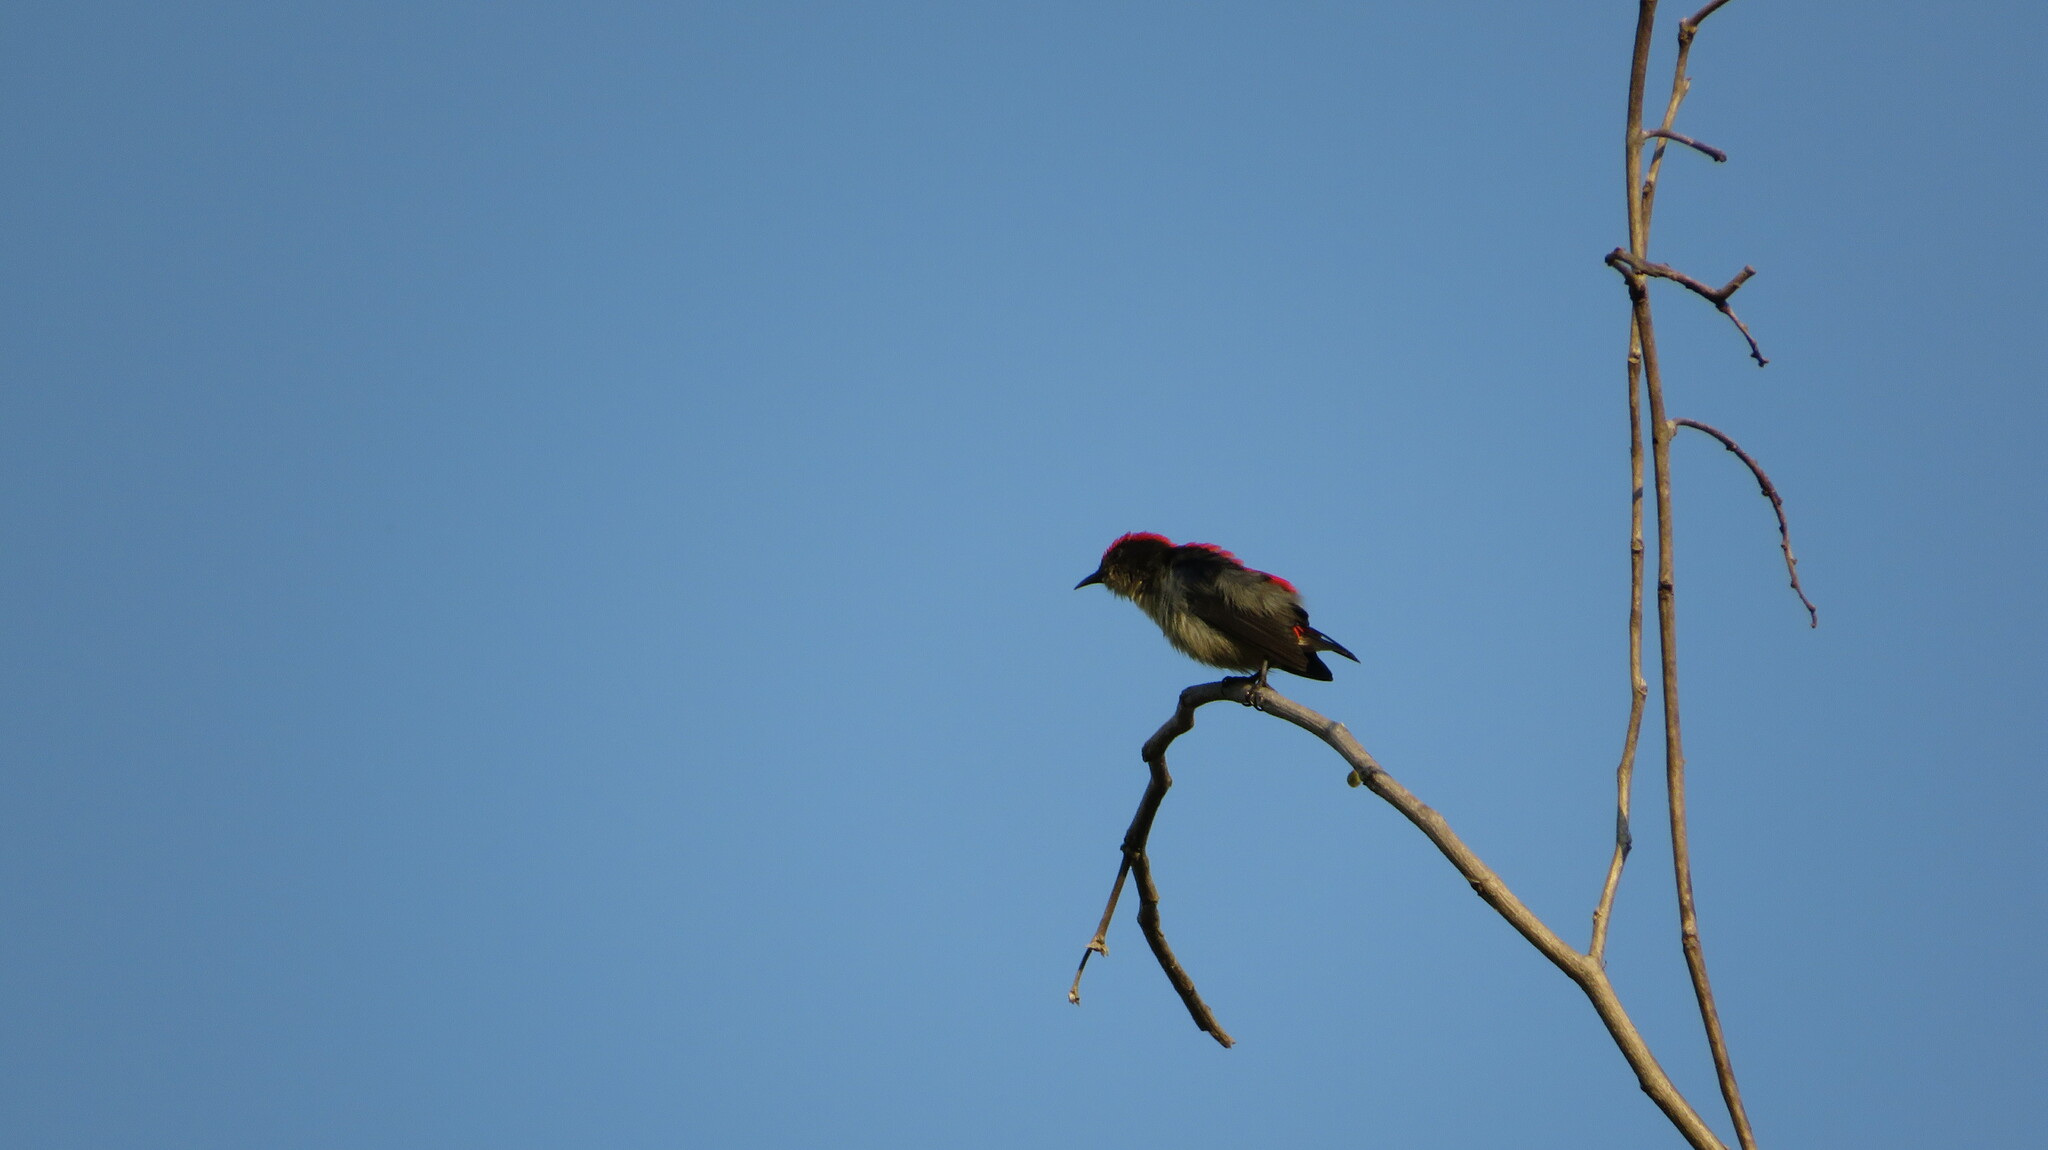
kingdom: Animalia
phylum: Chordata
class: Aves
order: Passeriformes
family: Dicaeidae
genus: Dicaeum
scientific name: Dicaeum cruentatum
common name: Scarlet-backed flowerpecker
